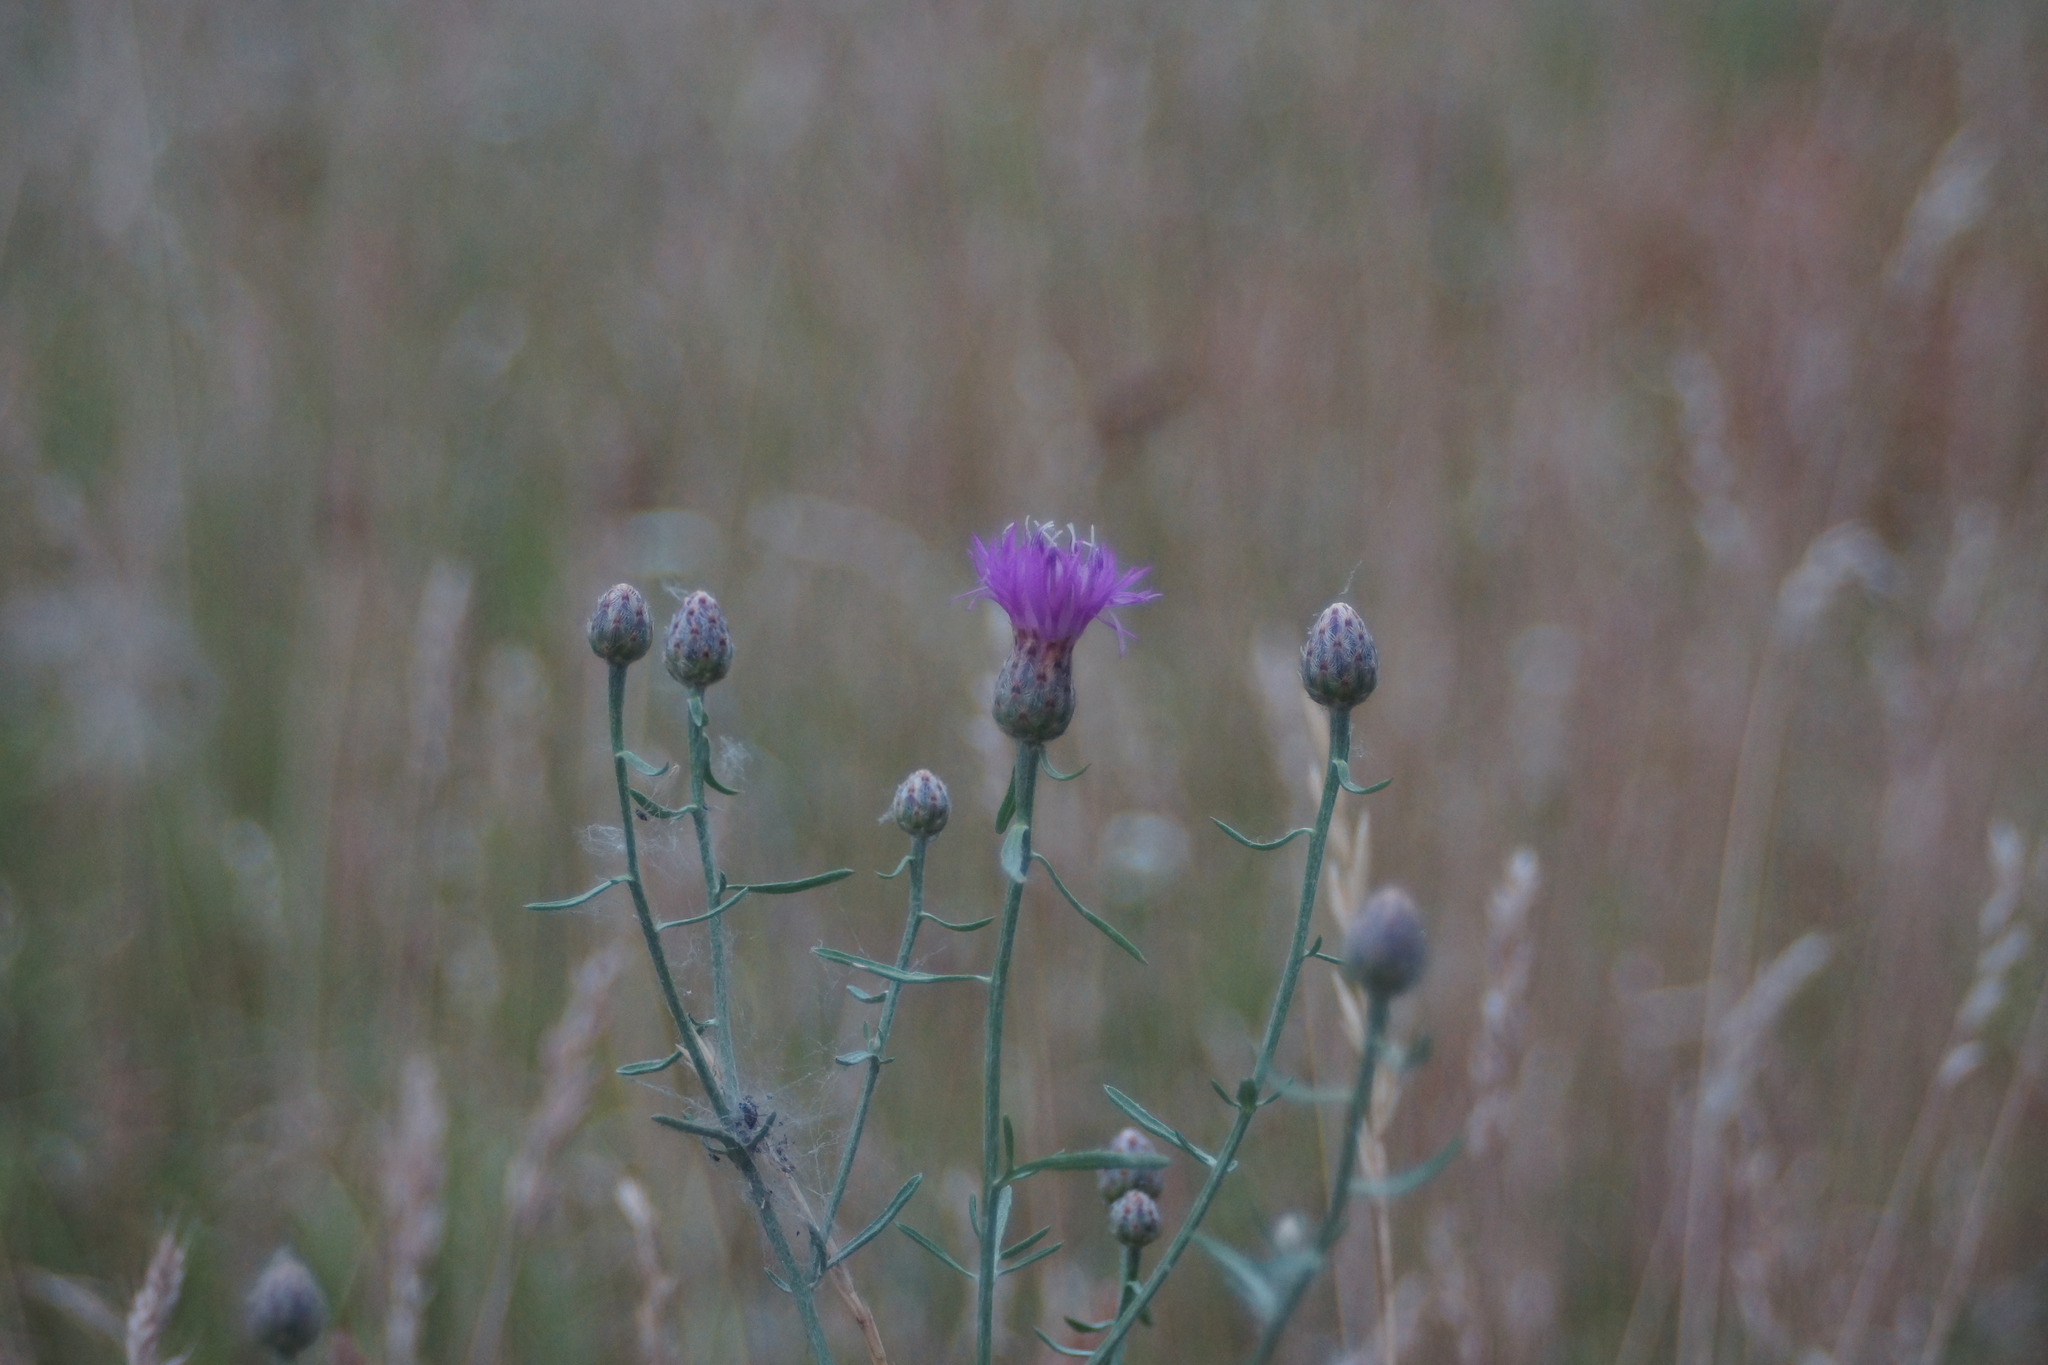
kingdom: Plantae
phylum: Tracheophyta
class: Magnoliopsida
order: Asterales
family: Asteraceae
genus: Centaurea
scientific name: Centaurea stoebe
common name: Spotted knapweed
